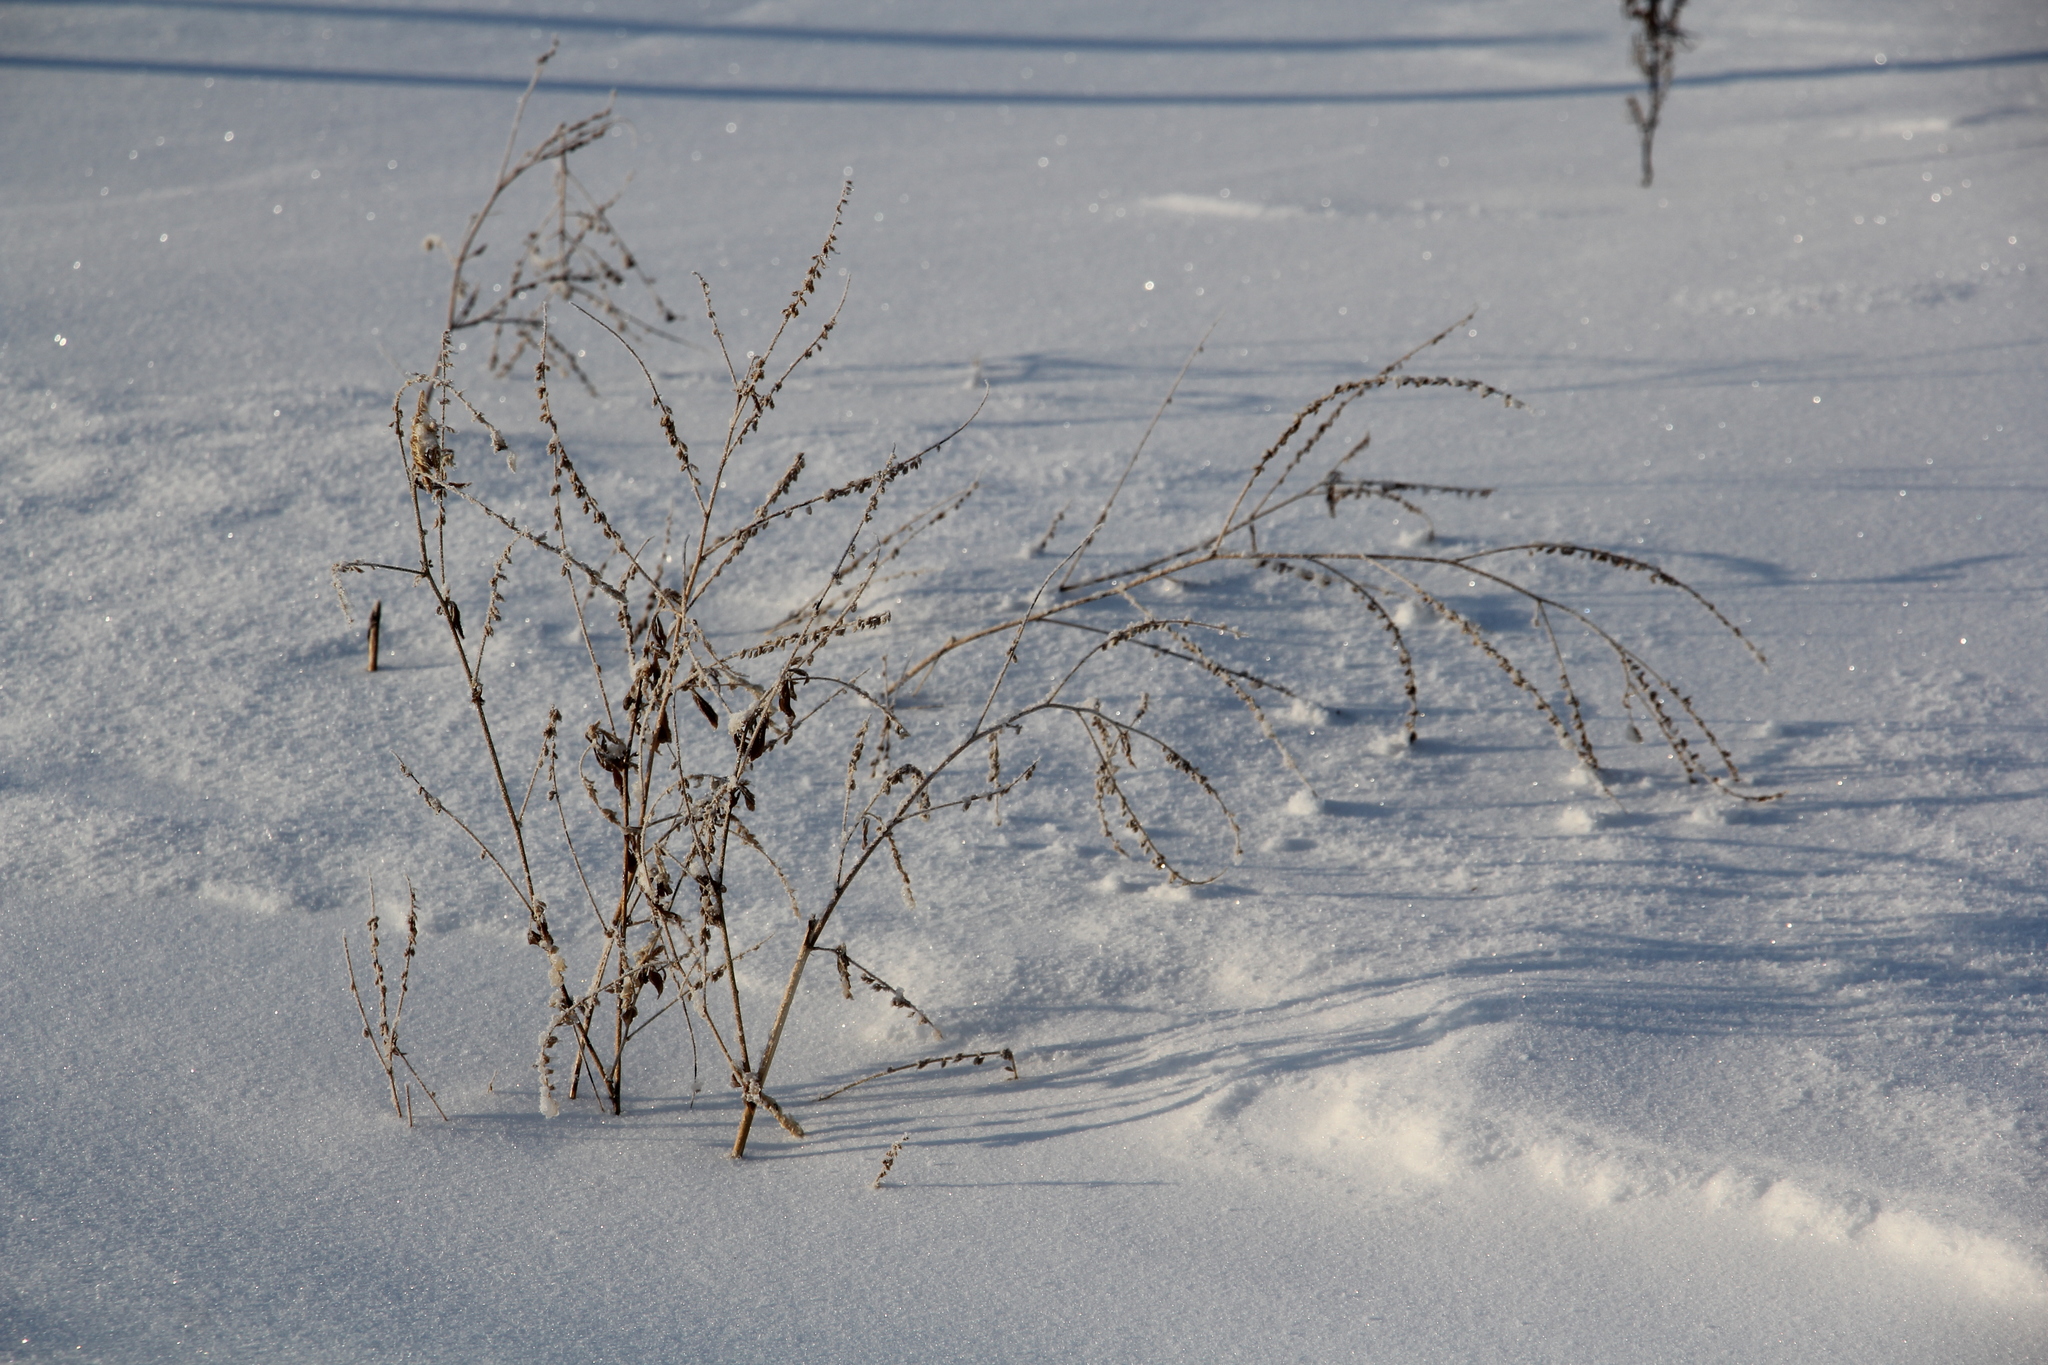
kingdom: Plantae
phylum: Tracheophyta
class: Magnoliopsida
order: Fabales
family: Fabaceae
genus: Melilotus
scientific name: Melilotus albus
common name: White melilot
